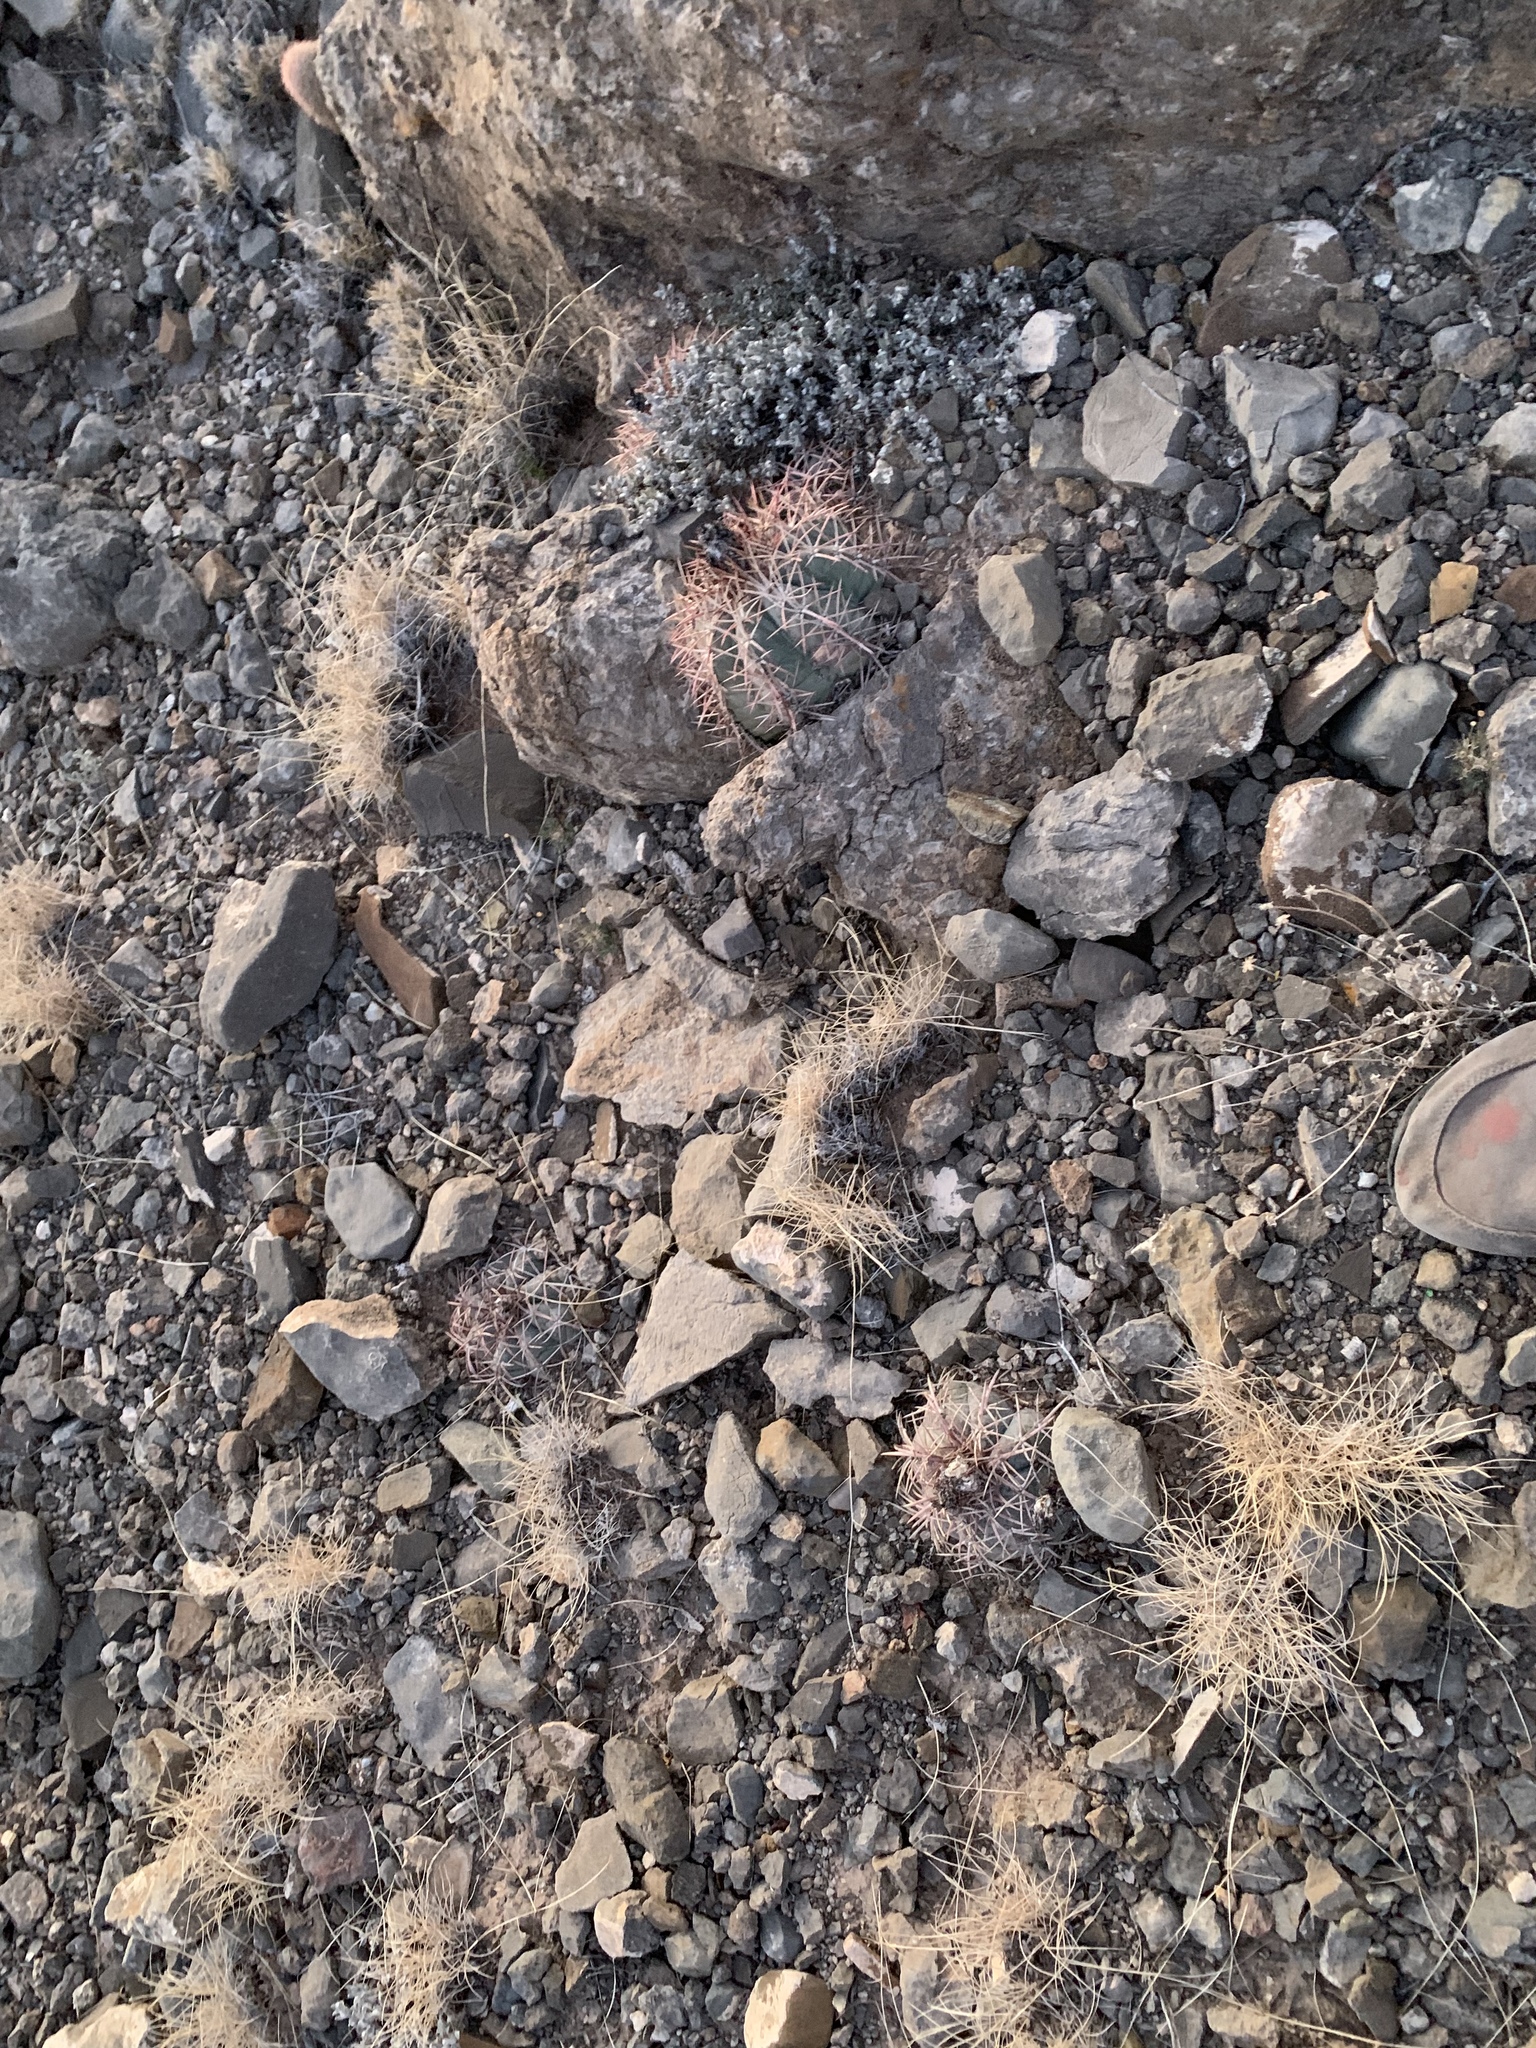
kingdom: Plantae
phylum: Tracheophyta
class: Magnoliopsida
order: Caryophyllales
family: Cactaceae
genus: Echinocactus
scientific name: Echinocactus horizonthalonius
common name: Devilshead
